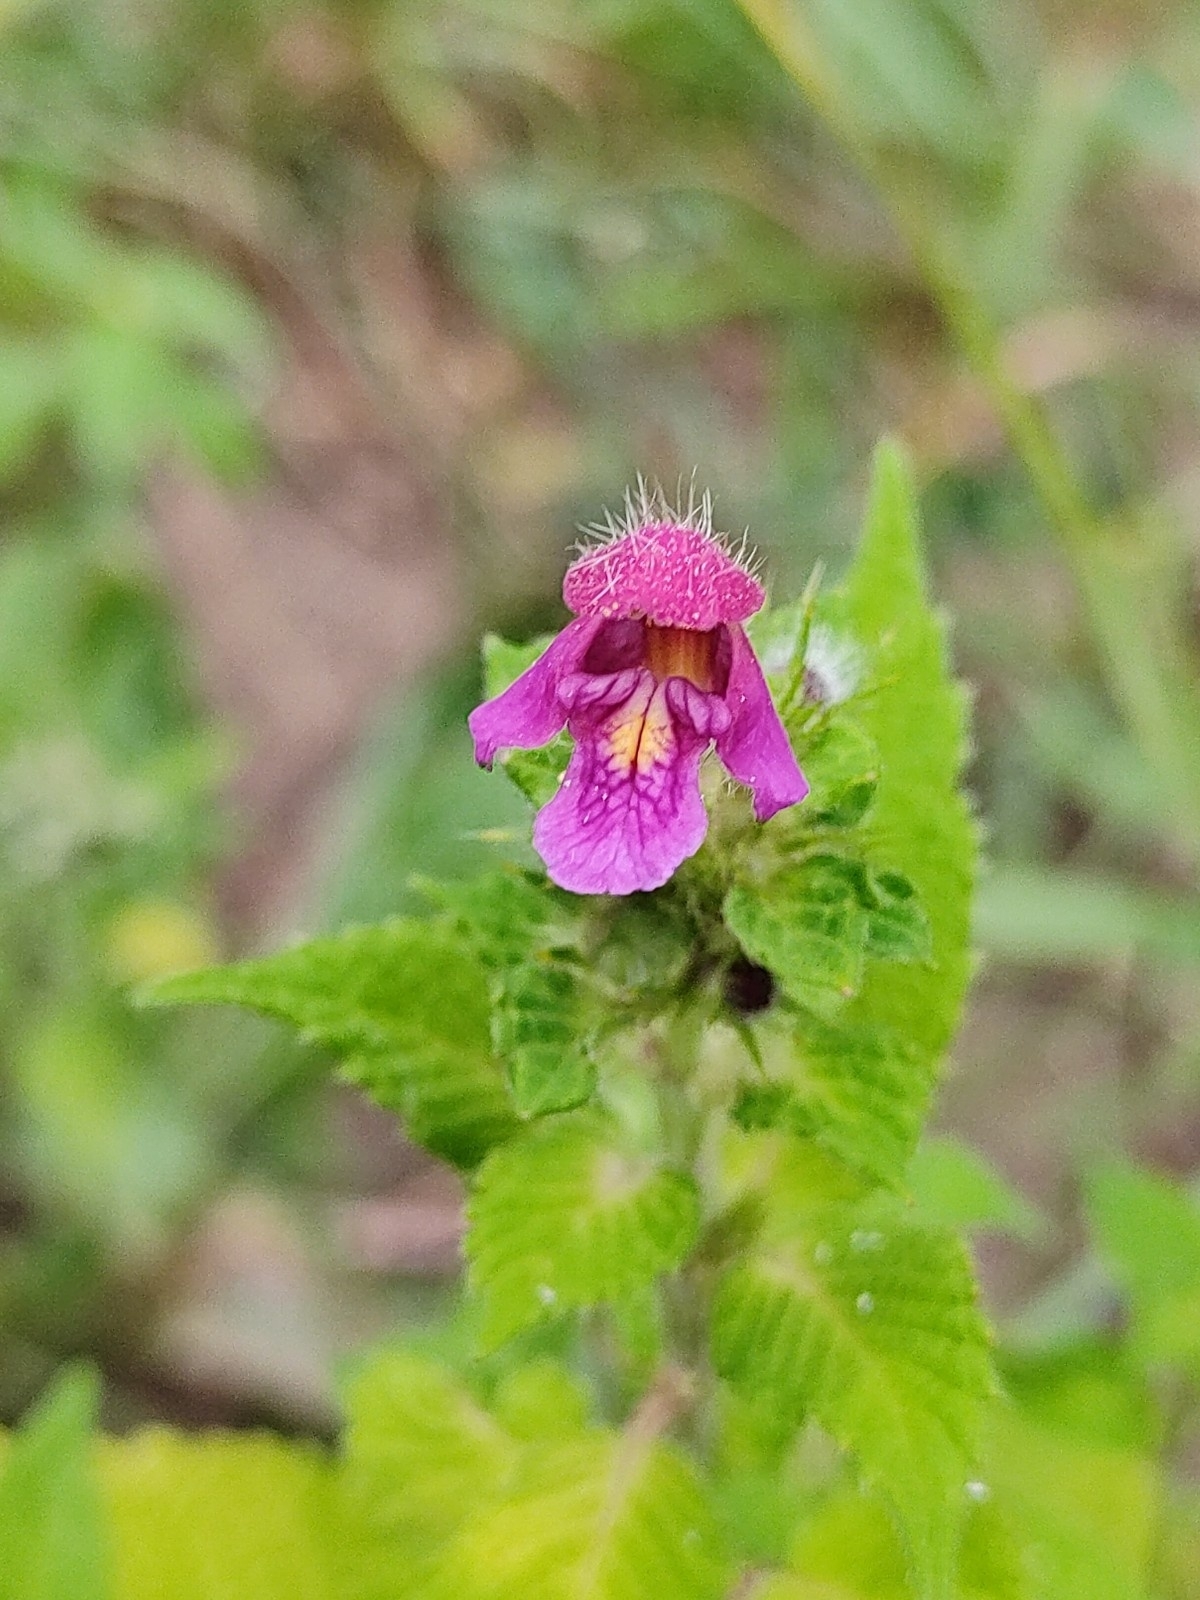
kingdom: Plantae
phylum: Tracheophyta
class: Magnoliopsida
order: Lamiales
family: Lamiaceae
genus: Galeopsis
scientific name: Galeopsis pubescens
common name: Downy hemp-nettle
